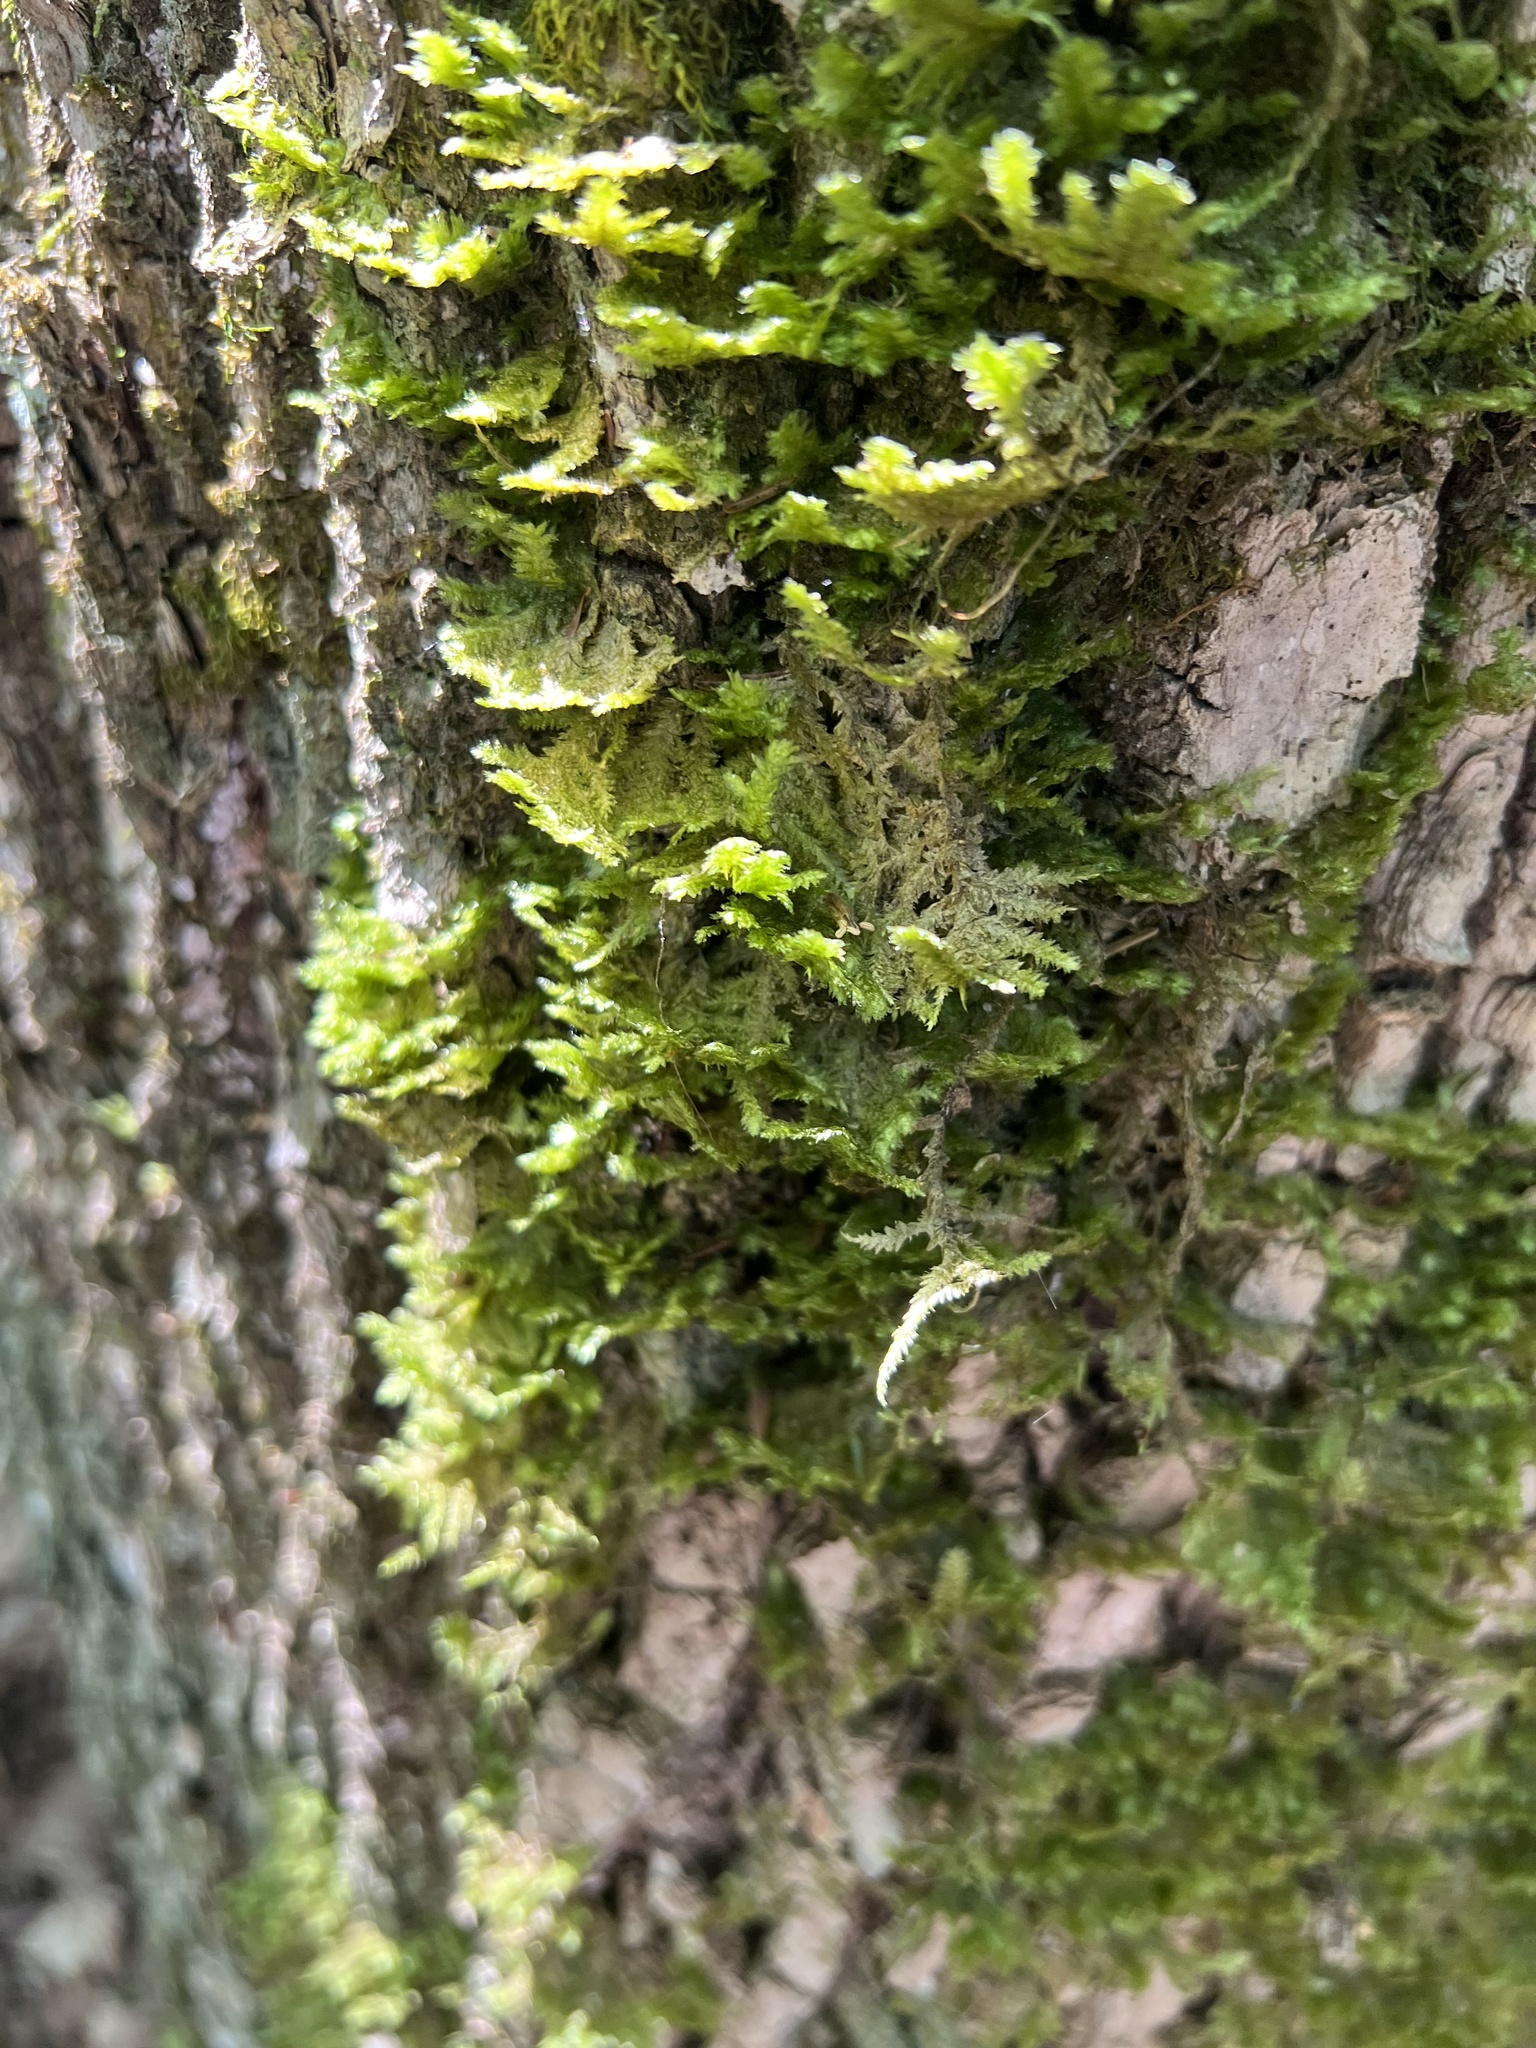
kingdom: Plantae
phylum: Bryophyta
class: Bryopsida
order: Hypnales
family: Neckeraceae
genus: Neckera
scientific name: Neckera pennata
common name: Feathery neckera
